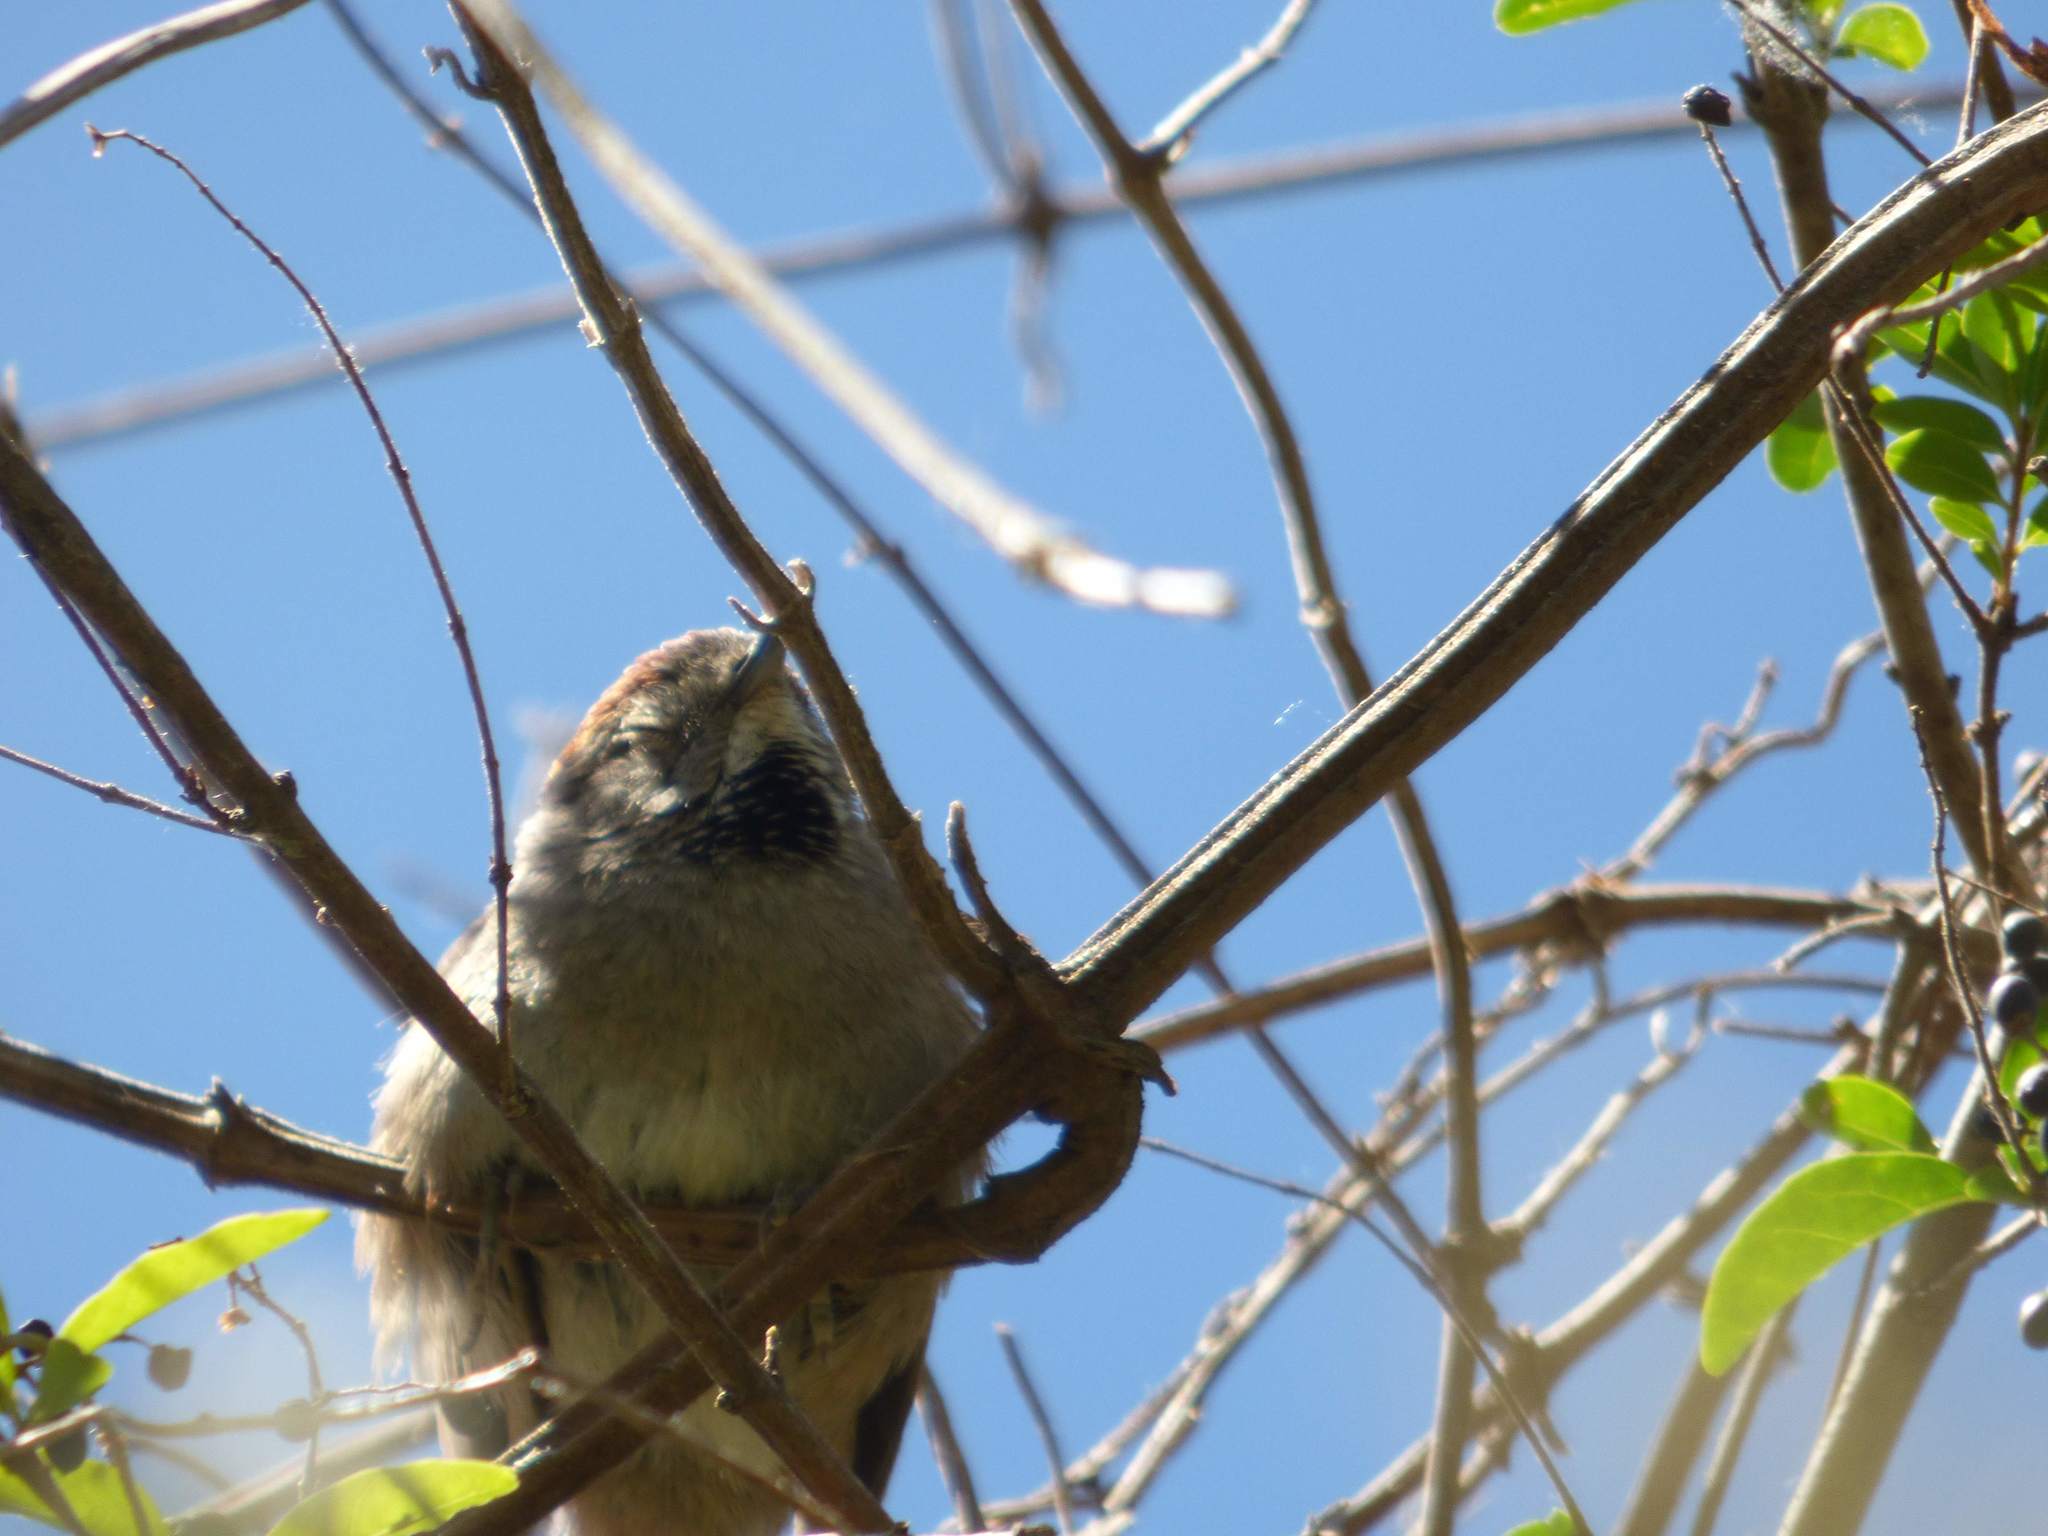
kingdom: Animalia
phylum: Chordata
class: Aves
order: Passeriformes
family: Furnariidae
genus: Synallaxis
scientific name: Synallaxis frontalis
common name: Sooty-fronted spinetail
